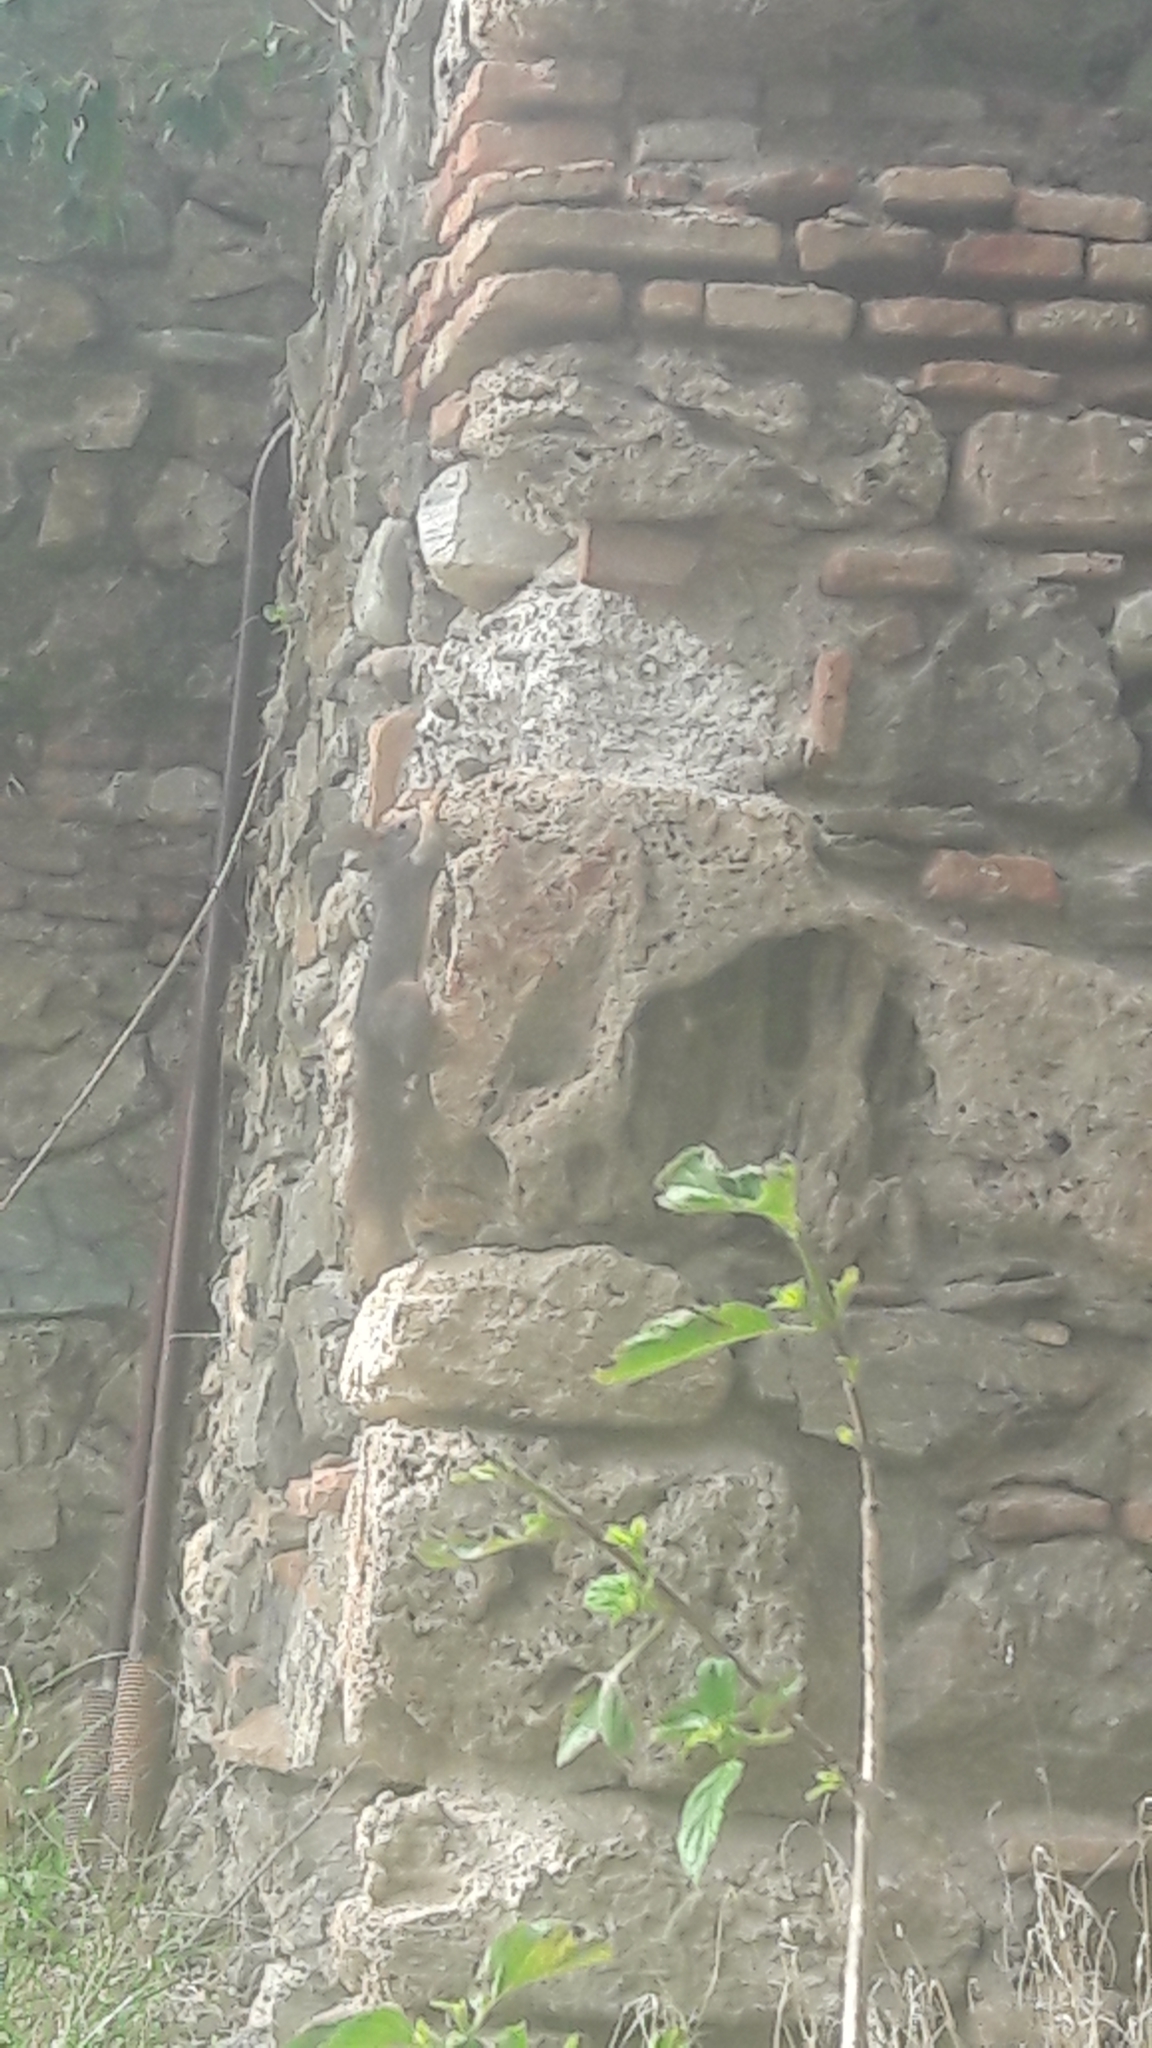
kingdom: Animalia
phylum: Chordata
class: Mammalia
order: Rodentia
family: Sciuridae
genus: Sciurus
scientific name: Sciurus vulgaris
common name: Eurasian red squirrel
